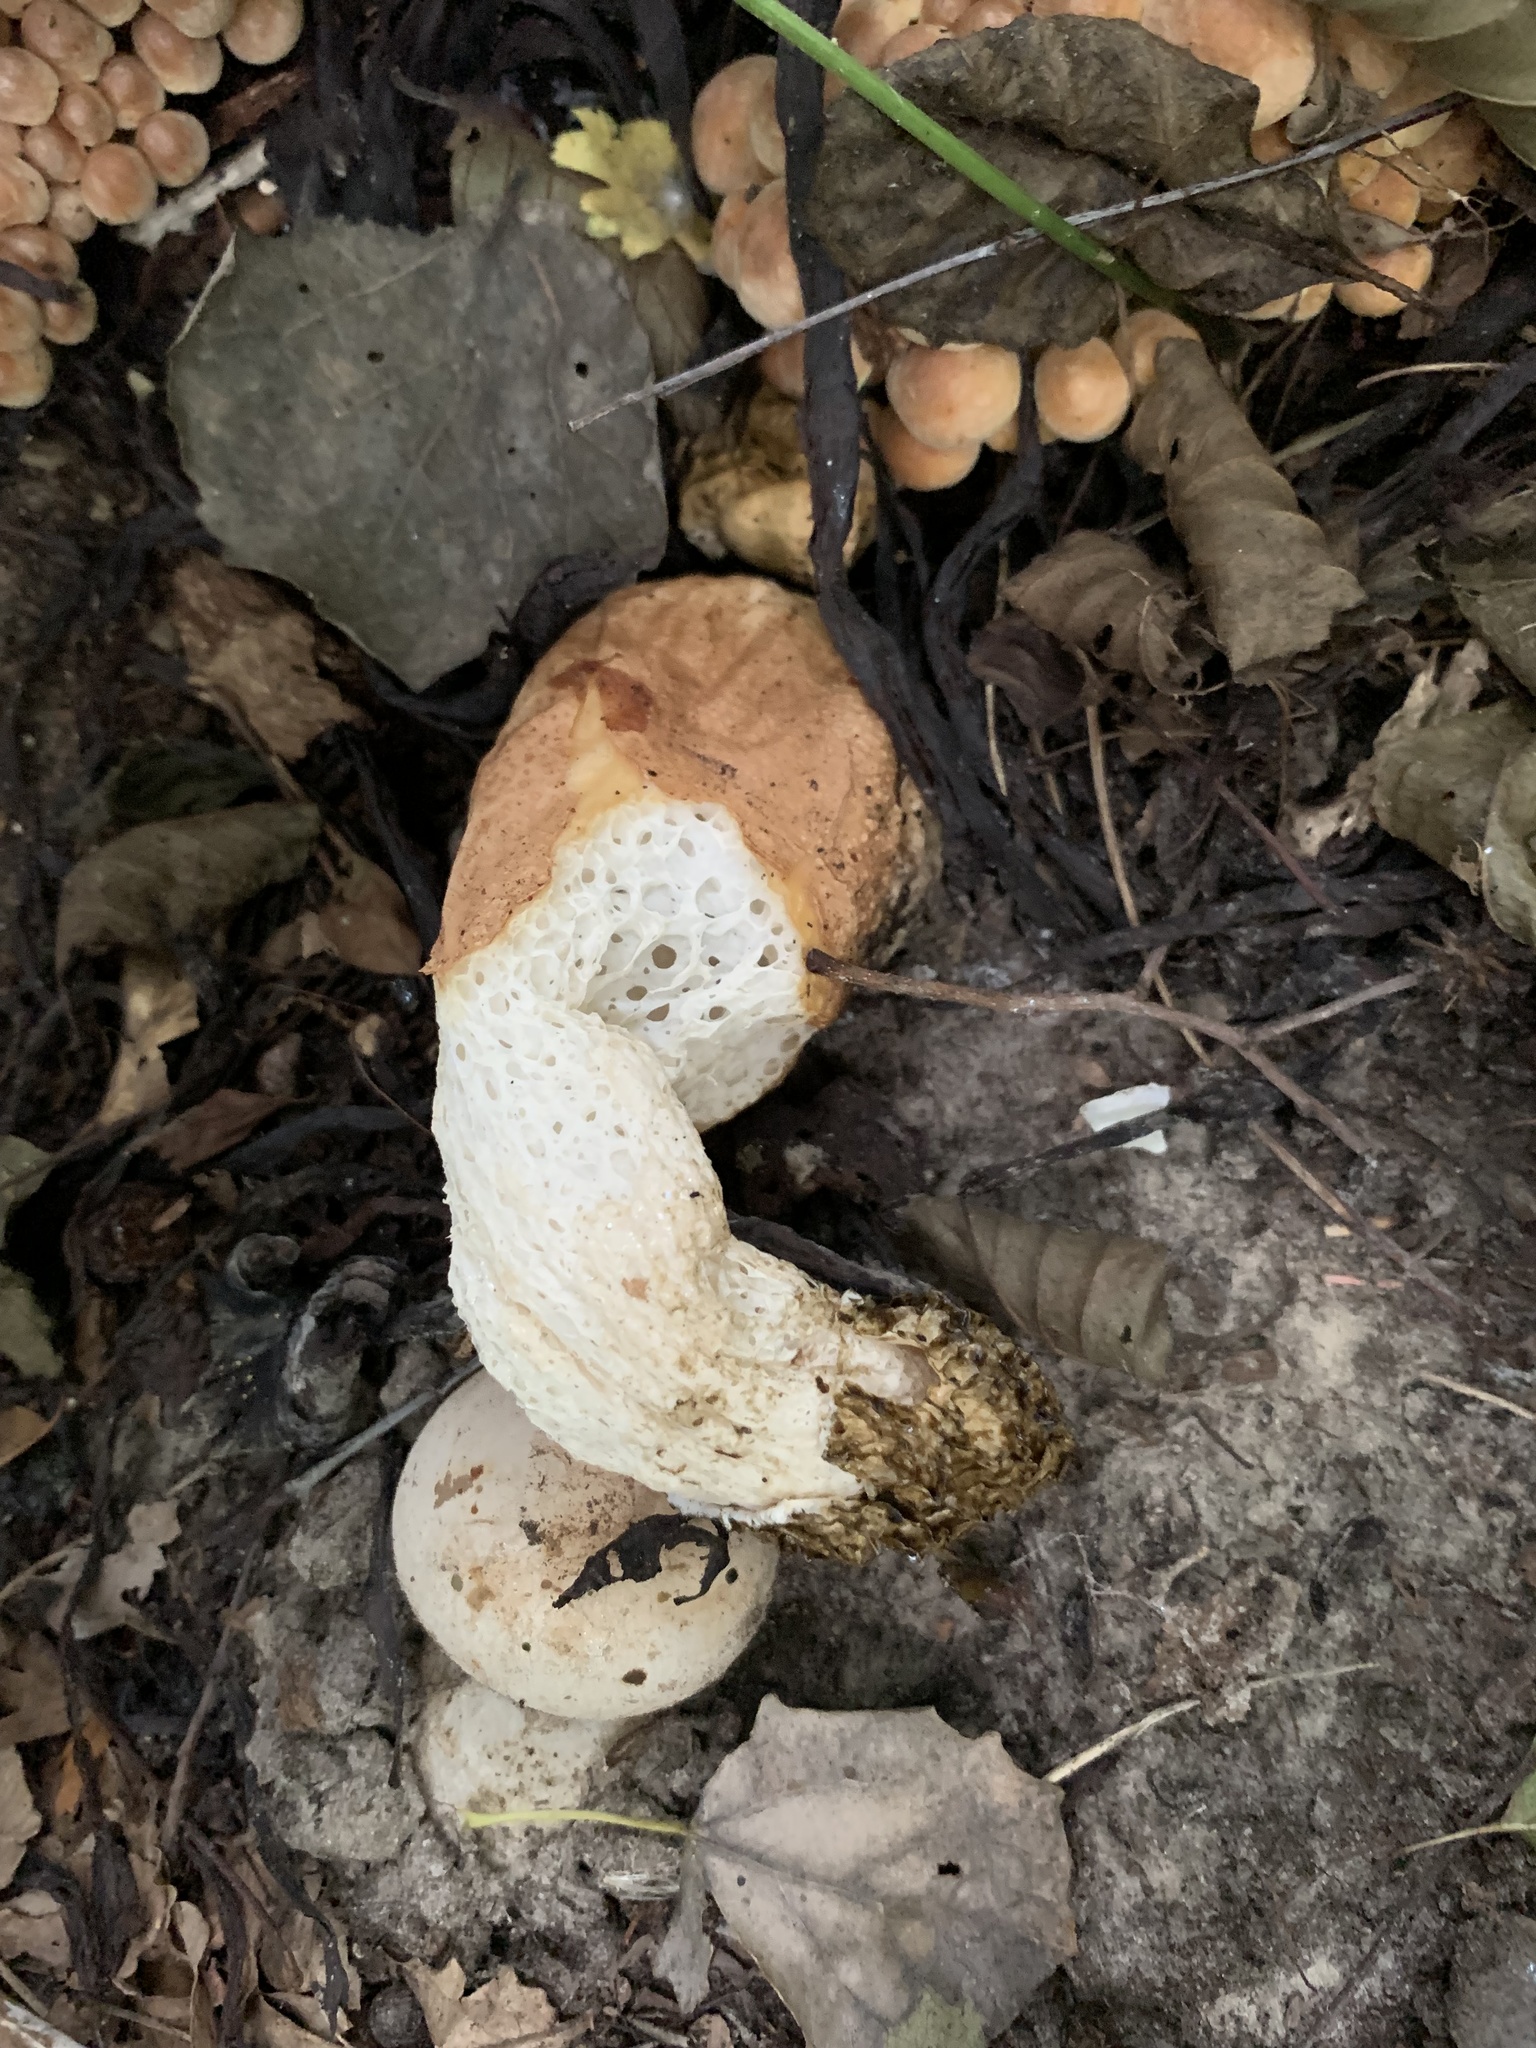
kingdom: Fungi
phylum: Basidiomycota
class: Agaricomycetes
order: Phallales
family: Phallaceae
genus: Phallus
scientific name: Phallus impudicus
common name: Common stinkhorn
